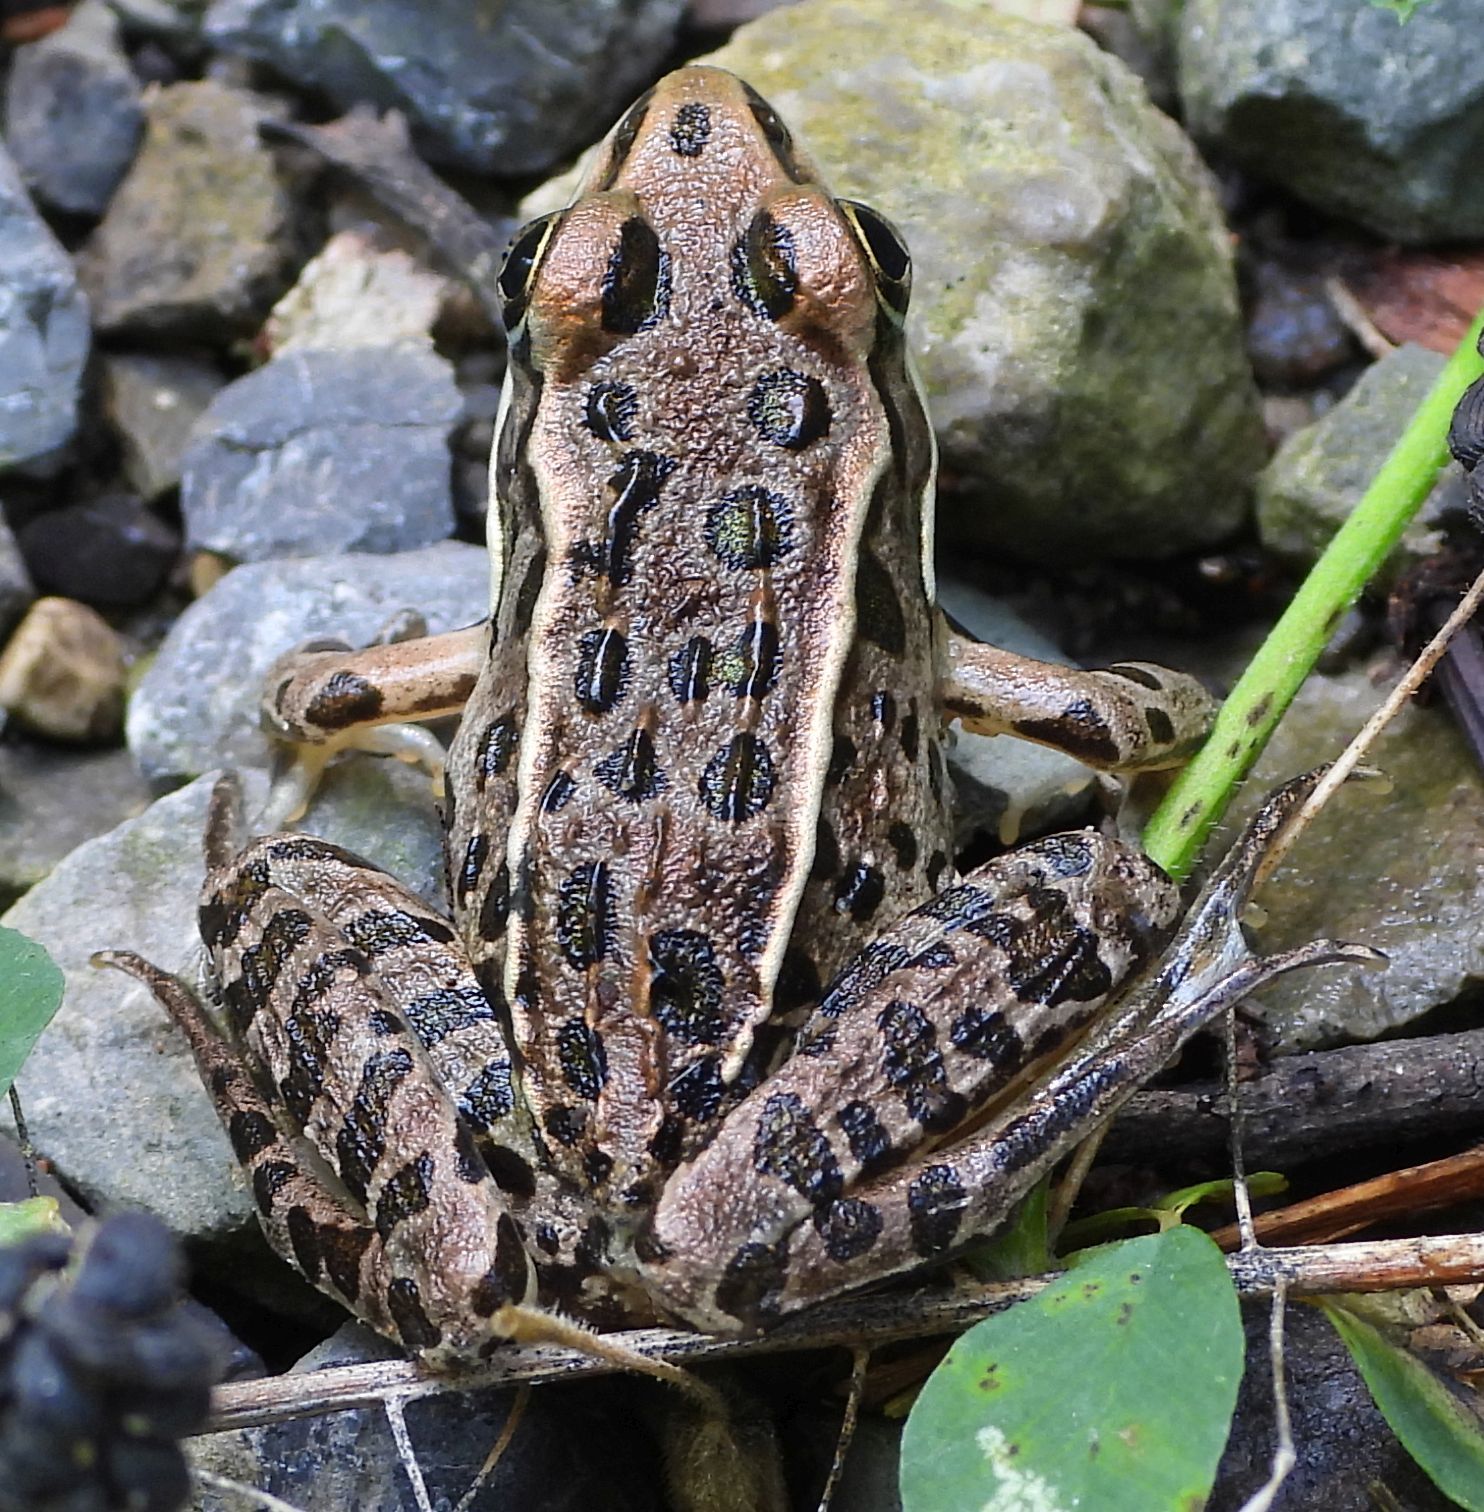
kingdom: Animalia
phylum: Chordata
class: Amphibia
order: Anura
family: Ranidae
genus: Lithobates
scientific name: Lithobates pipiens
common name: Northern leopard frog
